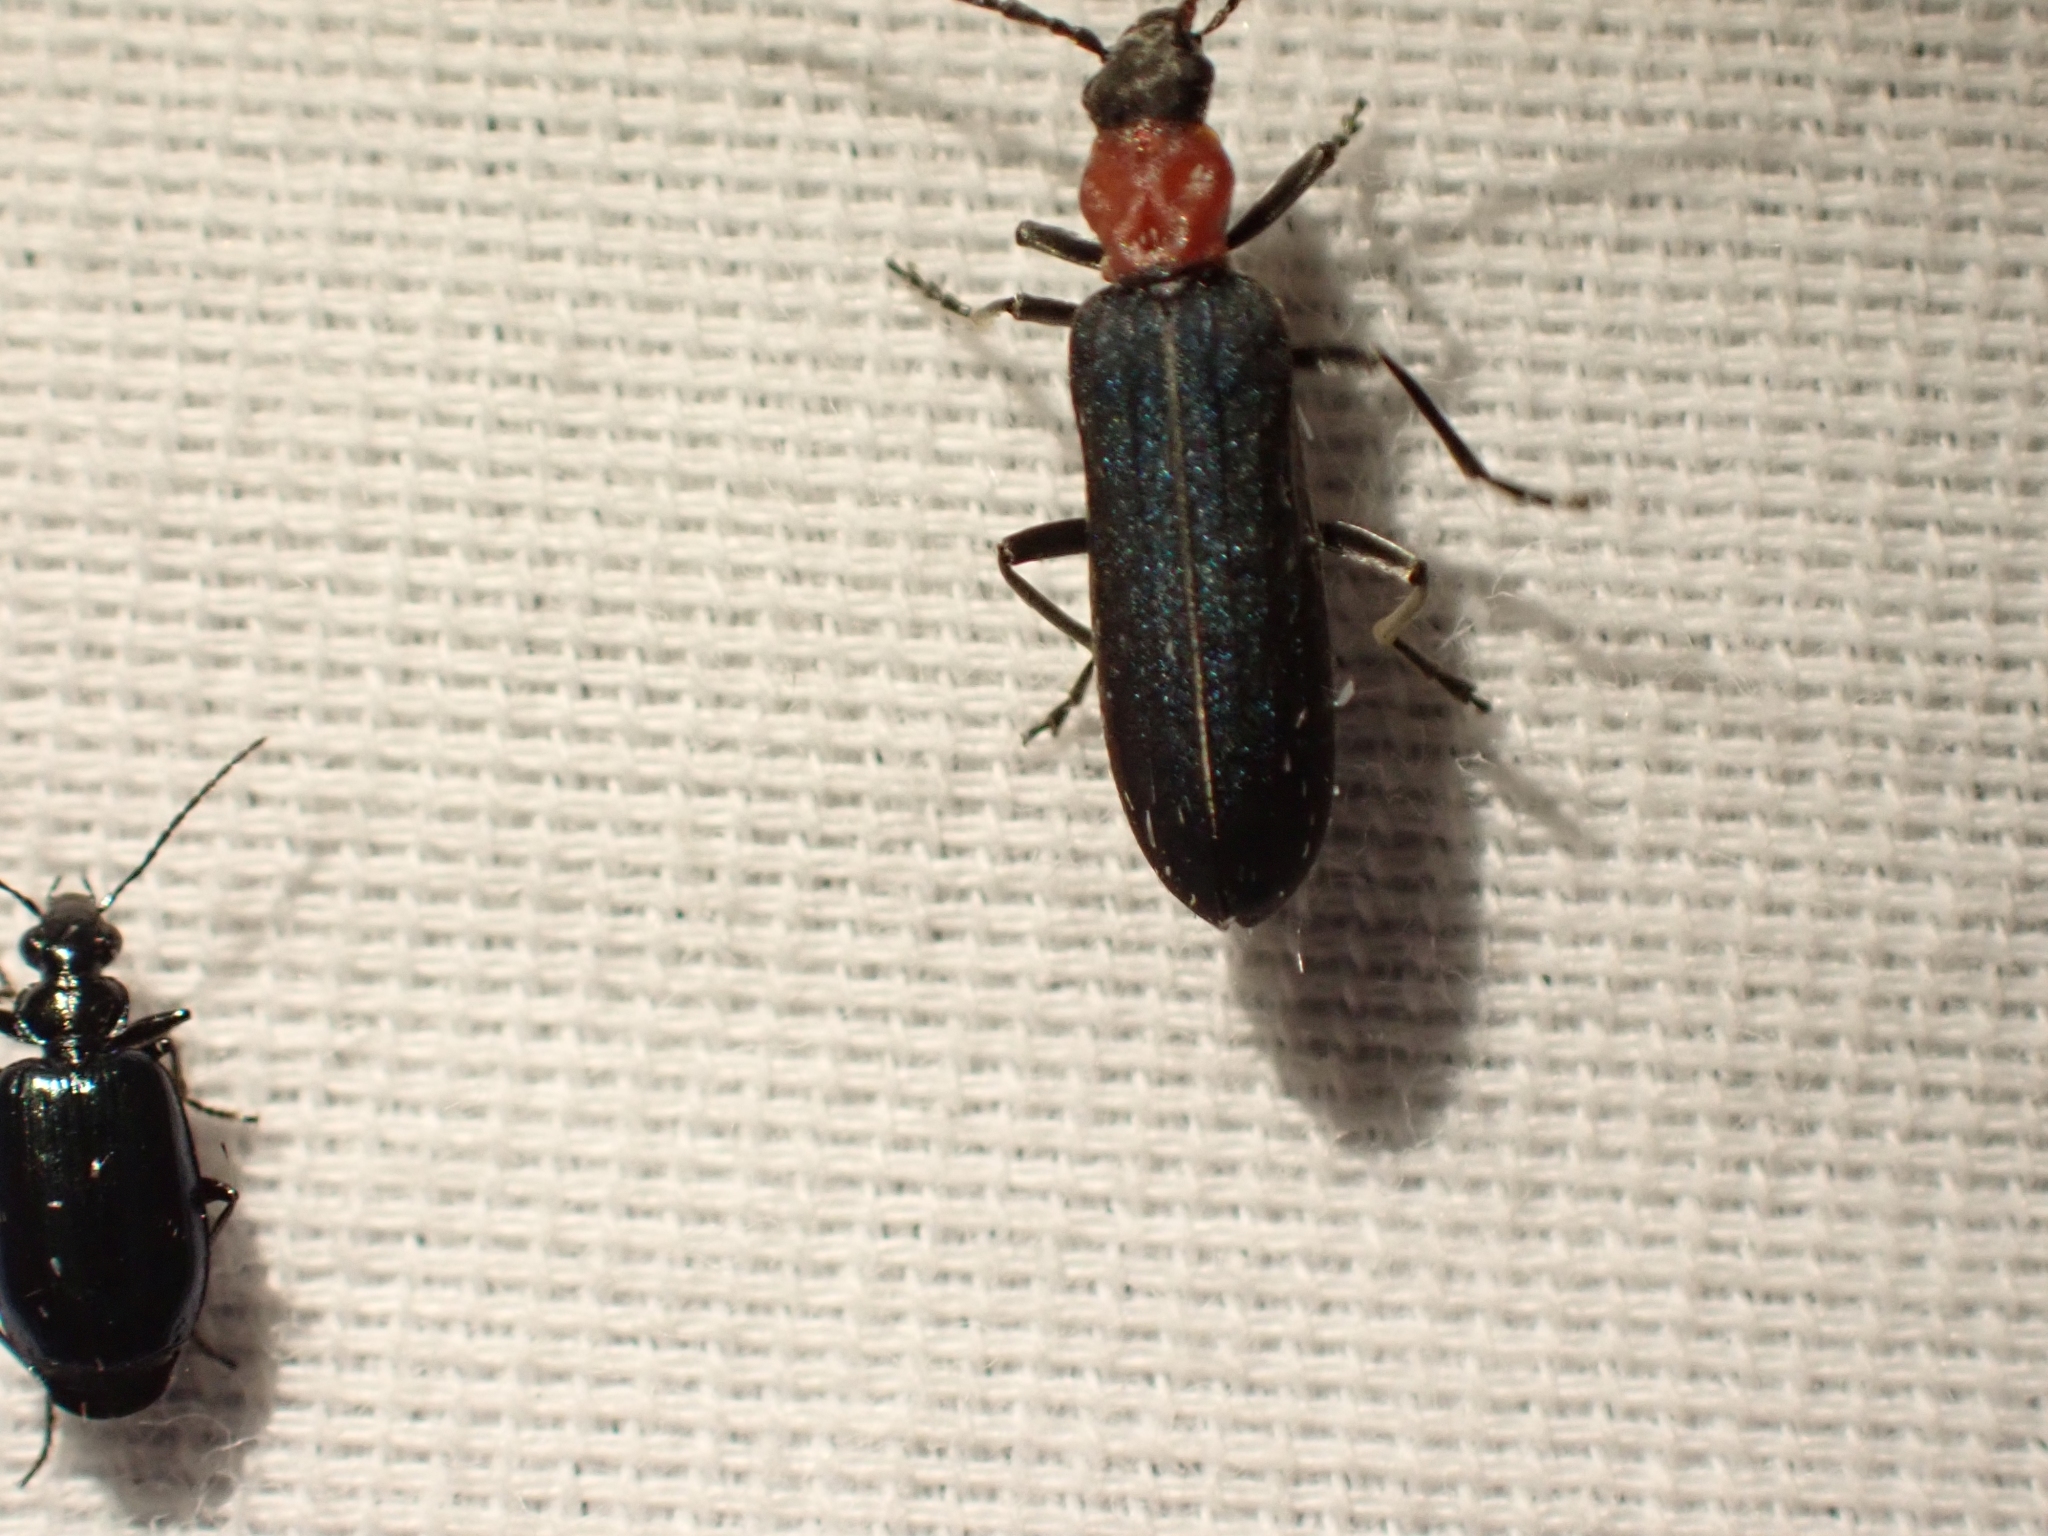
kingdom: Animalia
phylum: Arthropoda
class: Insecta
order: Coleoptera
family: Oedemeridae
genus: Ischnomera
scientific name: Ischnomera
